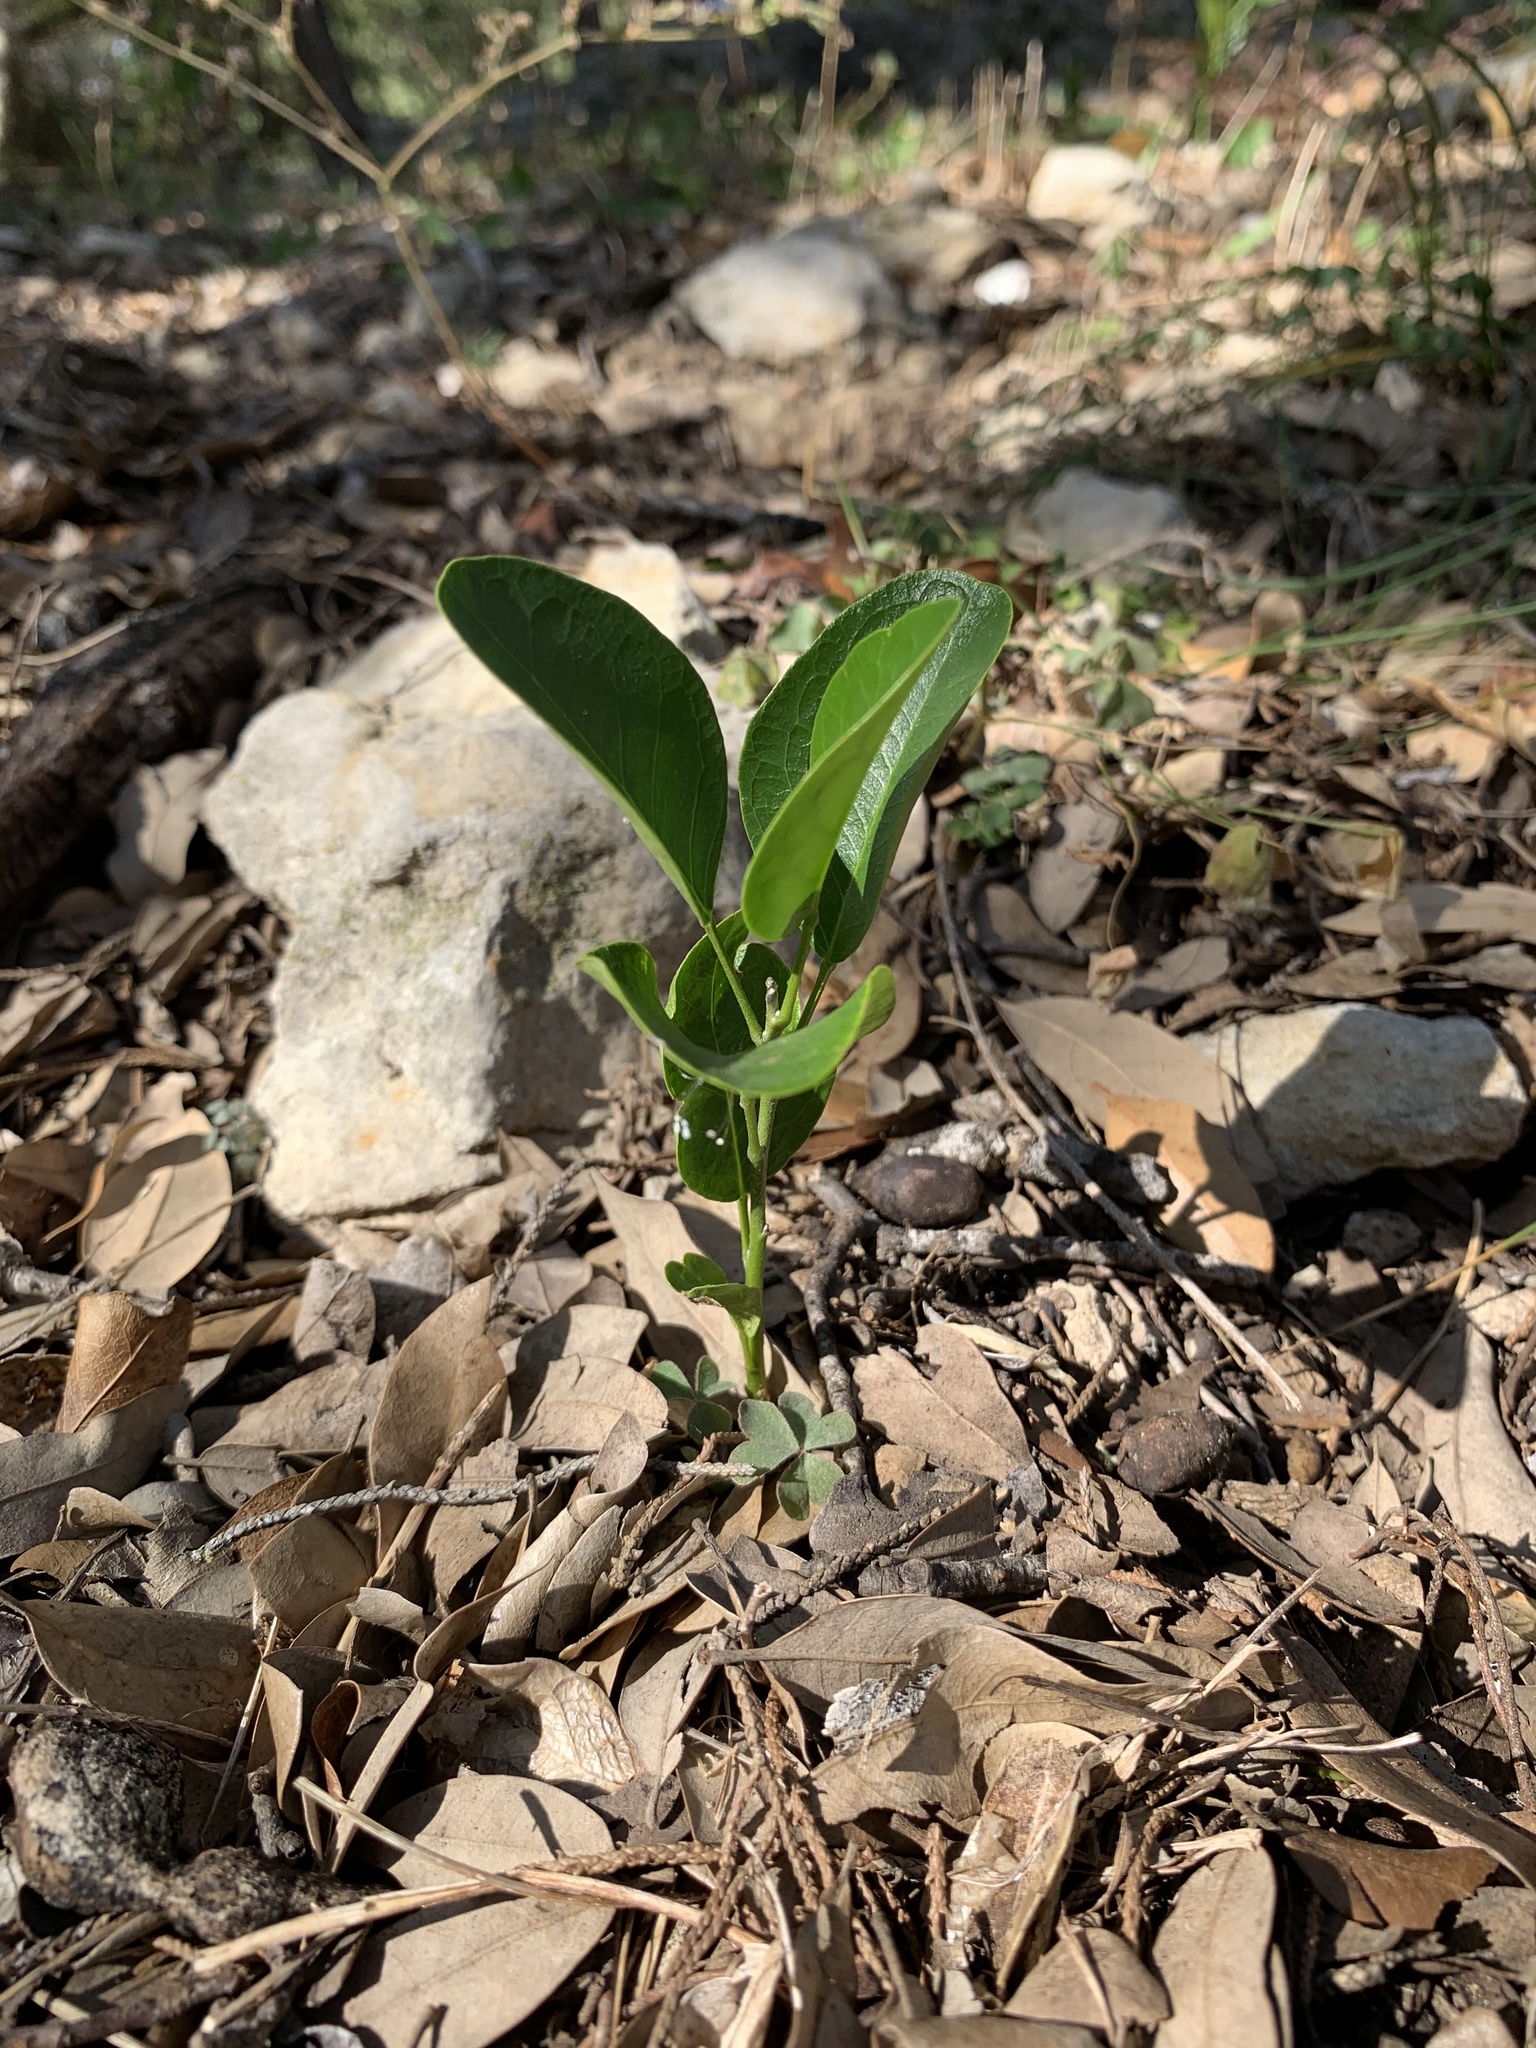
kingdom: Plantae
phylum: Tracheophyta
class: Magnoliopsida
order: Fabales
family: Fabaceae
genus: Dermatophyllum
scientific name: Dermatophyllum secundiflorum
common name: Texas-mountain-laurel
